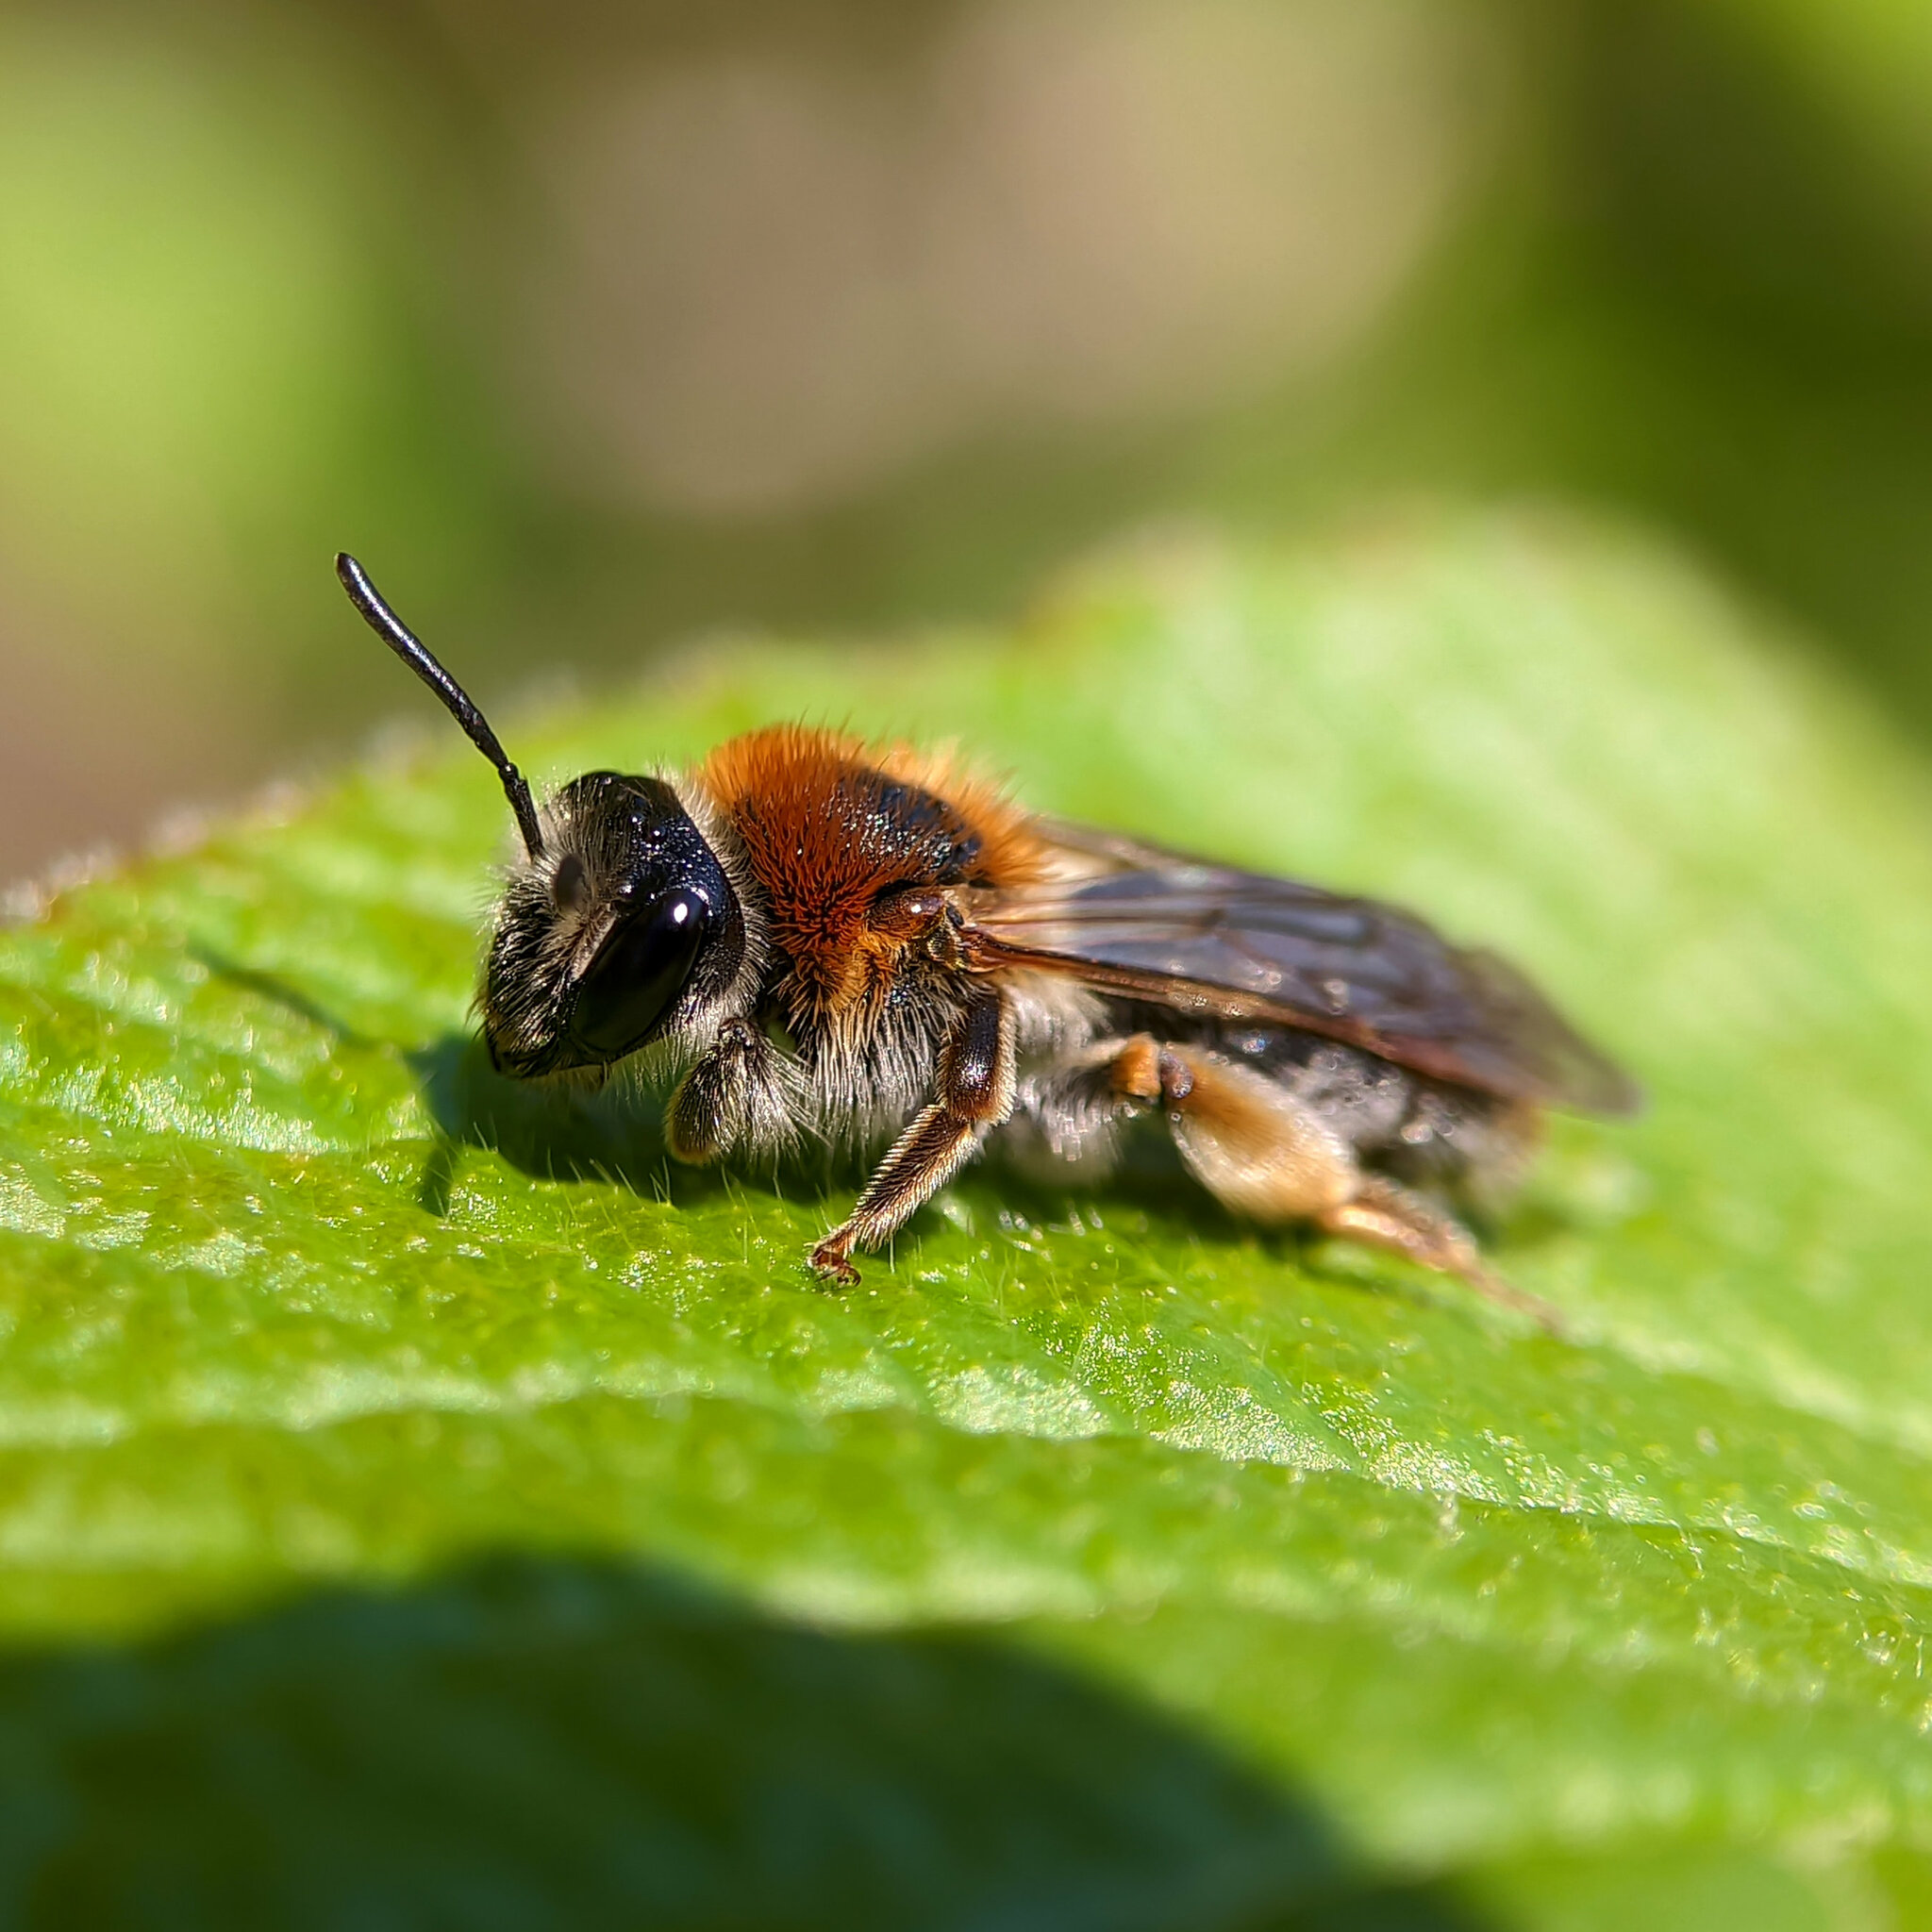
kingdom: Animalia
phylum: Arthropoda
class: Insecta
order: Hymenoptera
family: Andrenidae
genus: Andrena
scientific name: Andrena haemorrhoa
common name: Early mining bee
